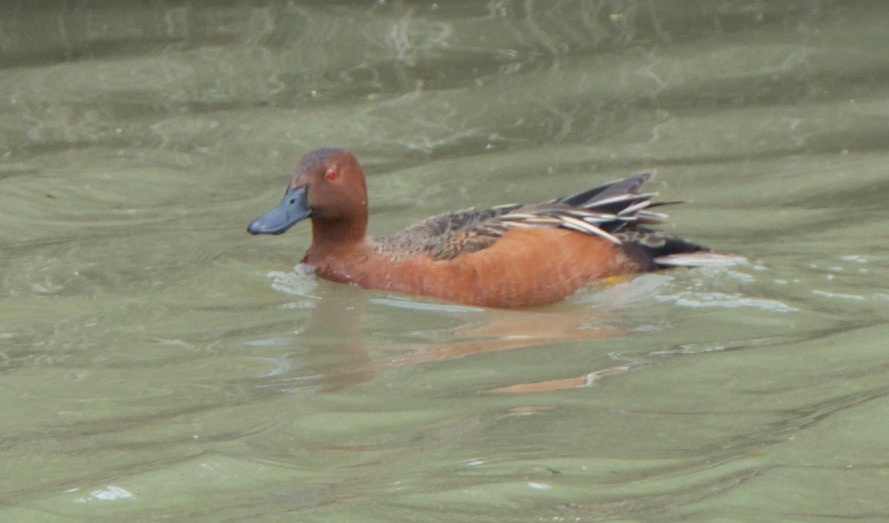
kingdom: Animalia
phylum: Chordata
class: Aves
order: Anseriformes
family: Anatidae
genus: Spatula
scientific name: Spatula cyanoptera
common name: Cinnamon teal
